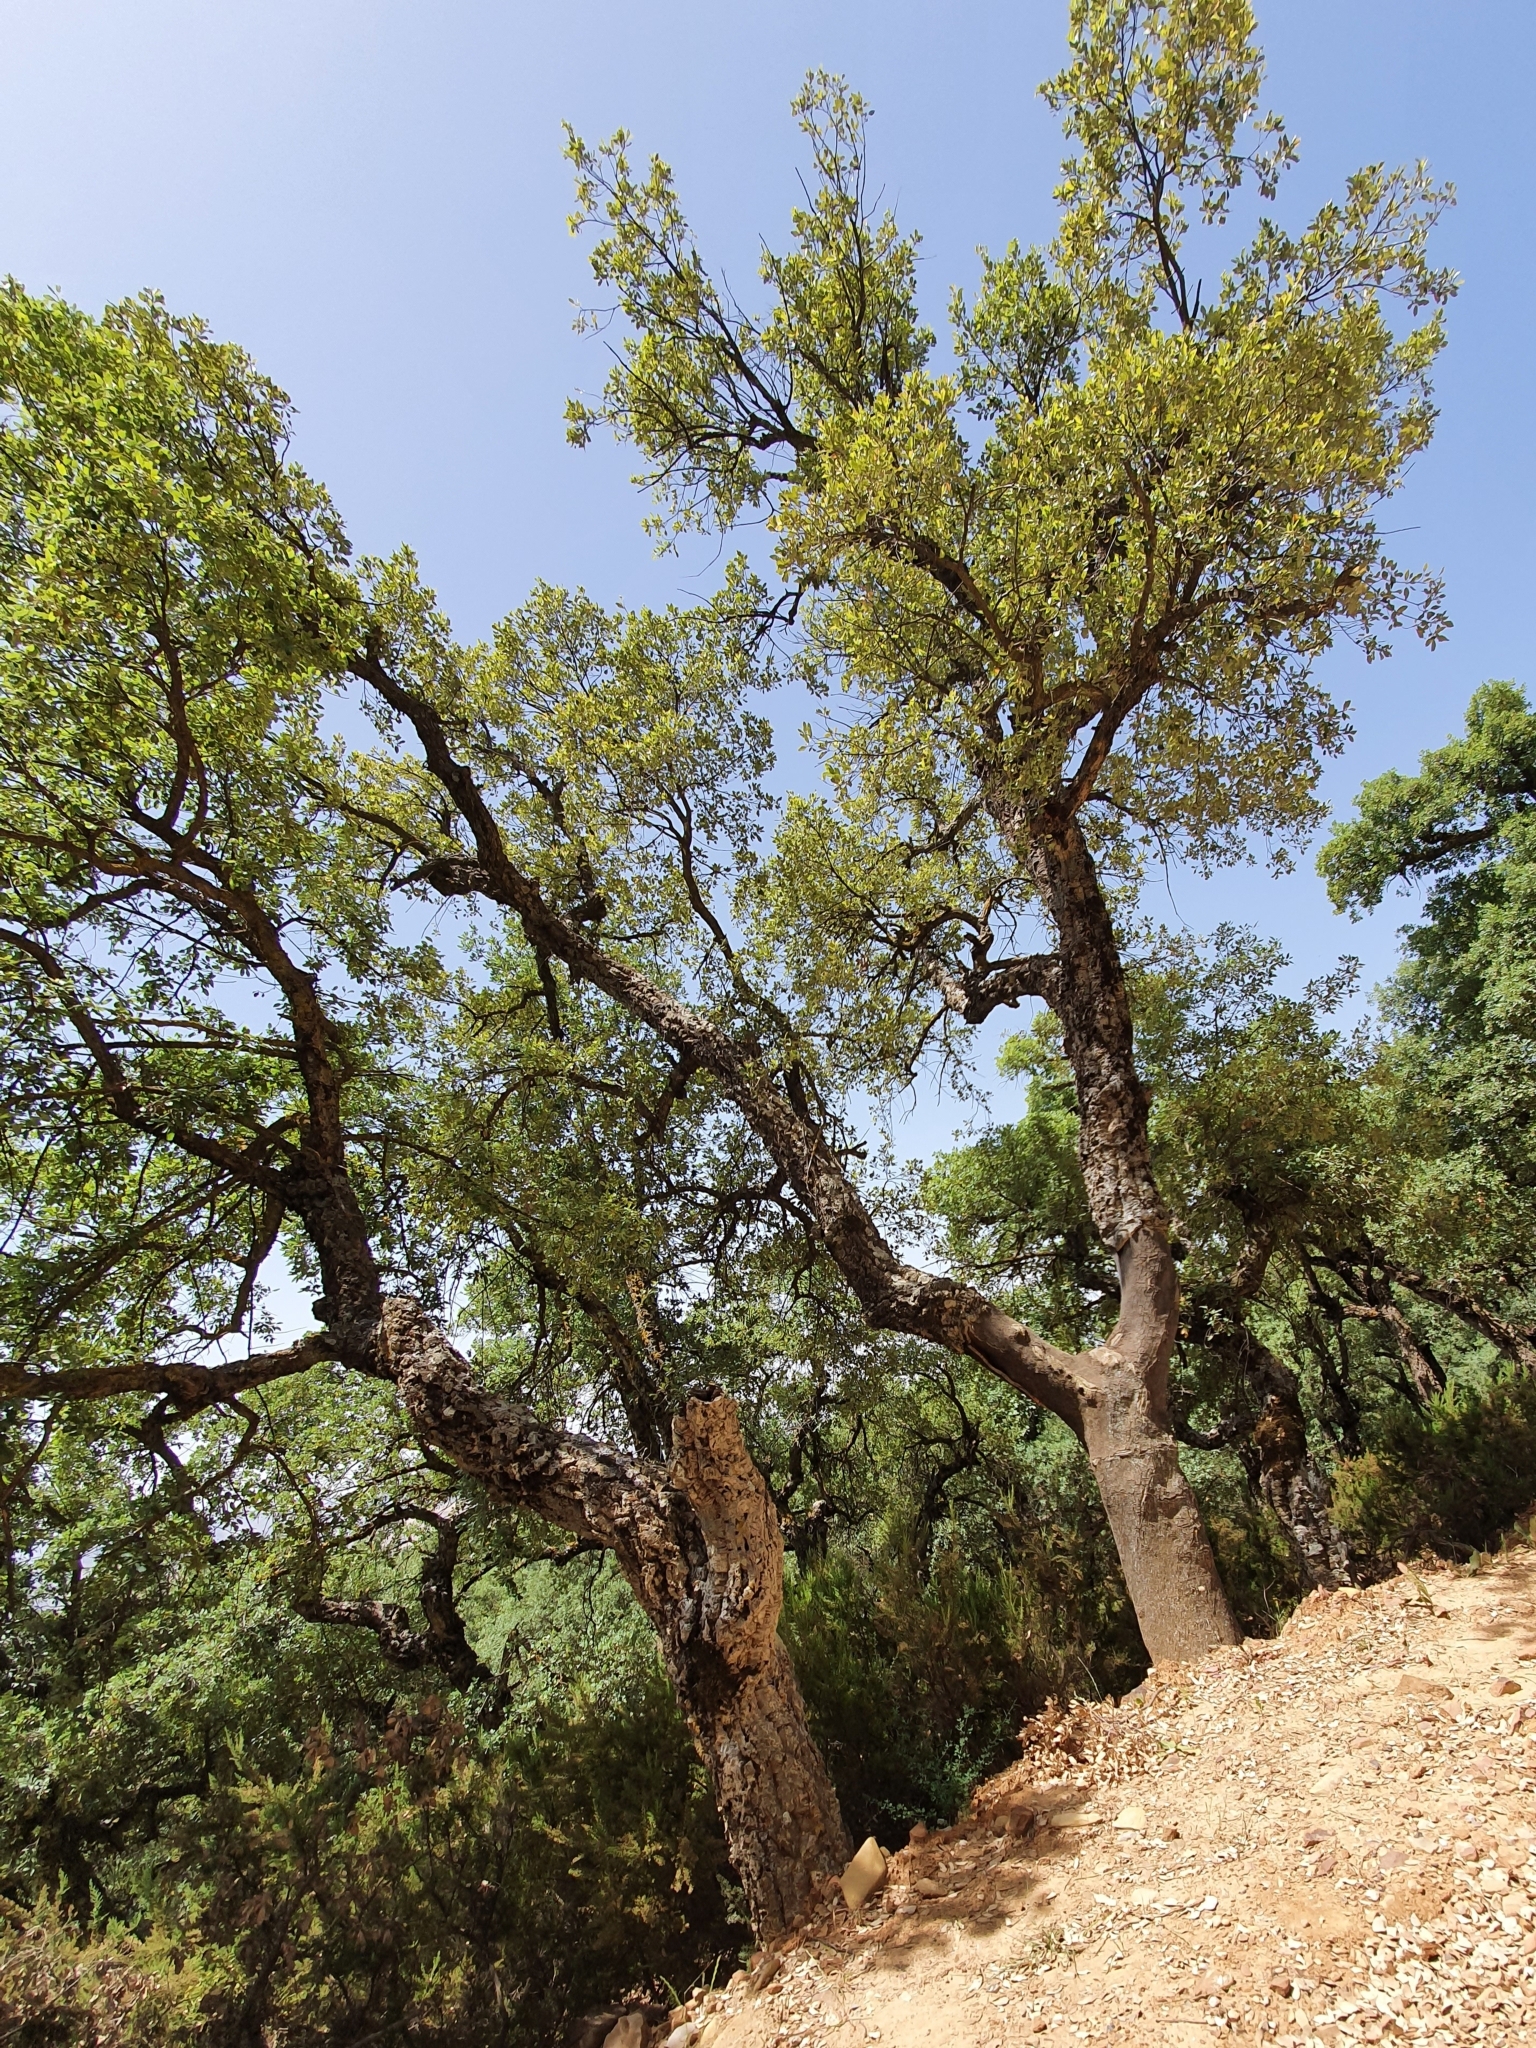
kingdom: Plantae
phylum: Tracheophyta
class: Magnoliopsida
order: Fagales
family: Fagaceae
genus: Quercus
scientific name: Quercus suber
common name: Cork oak
